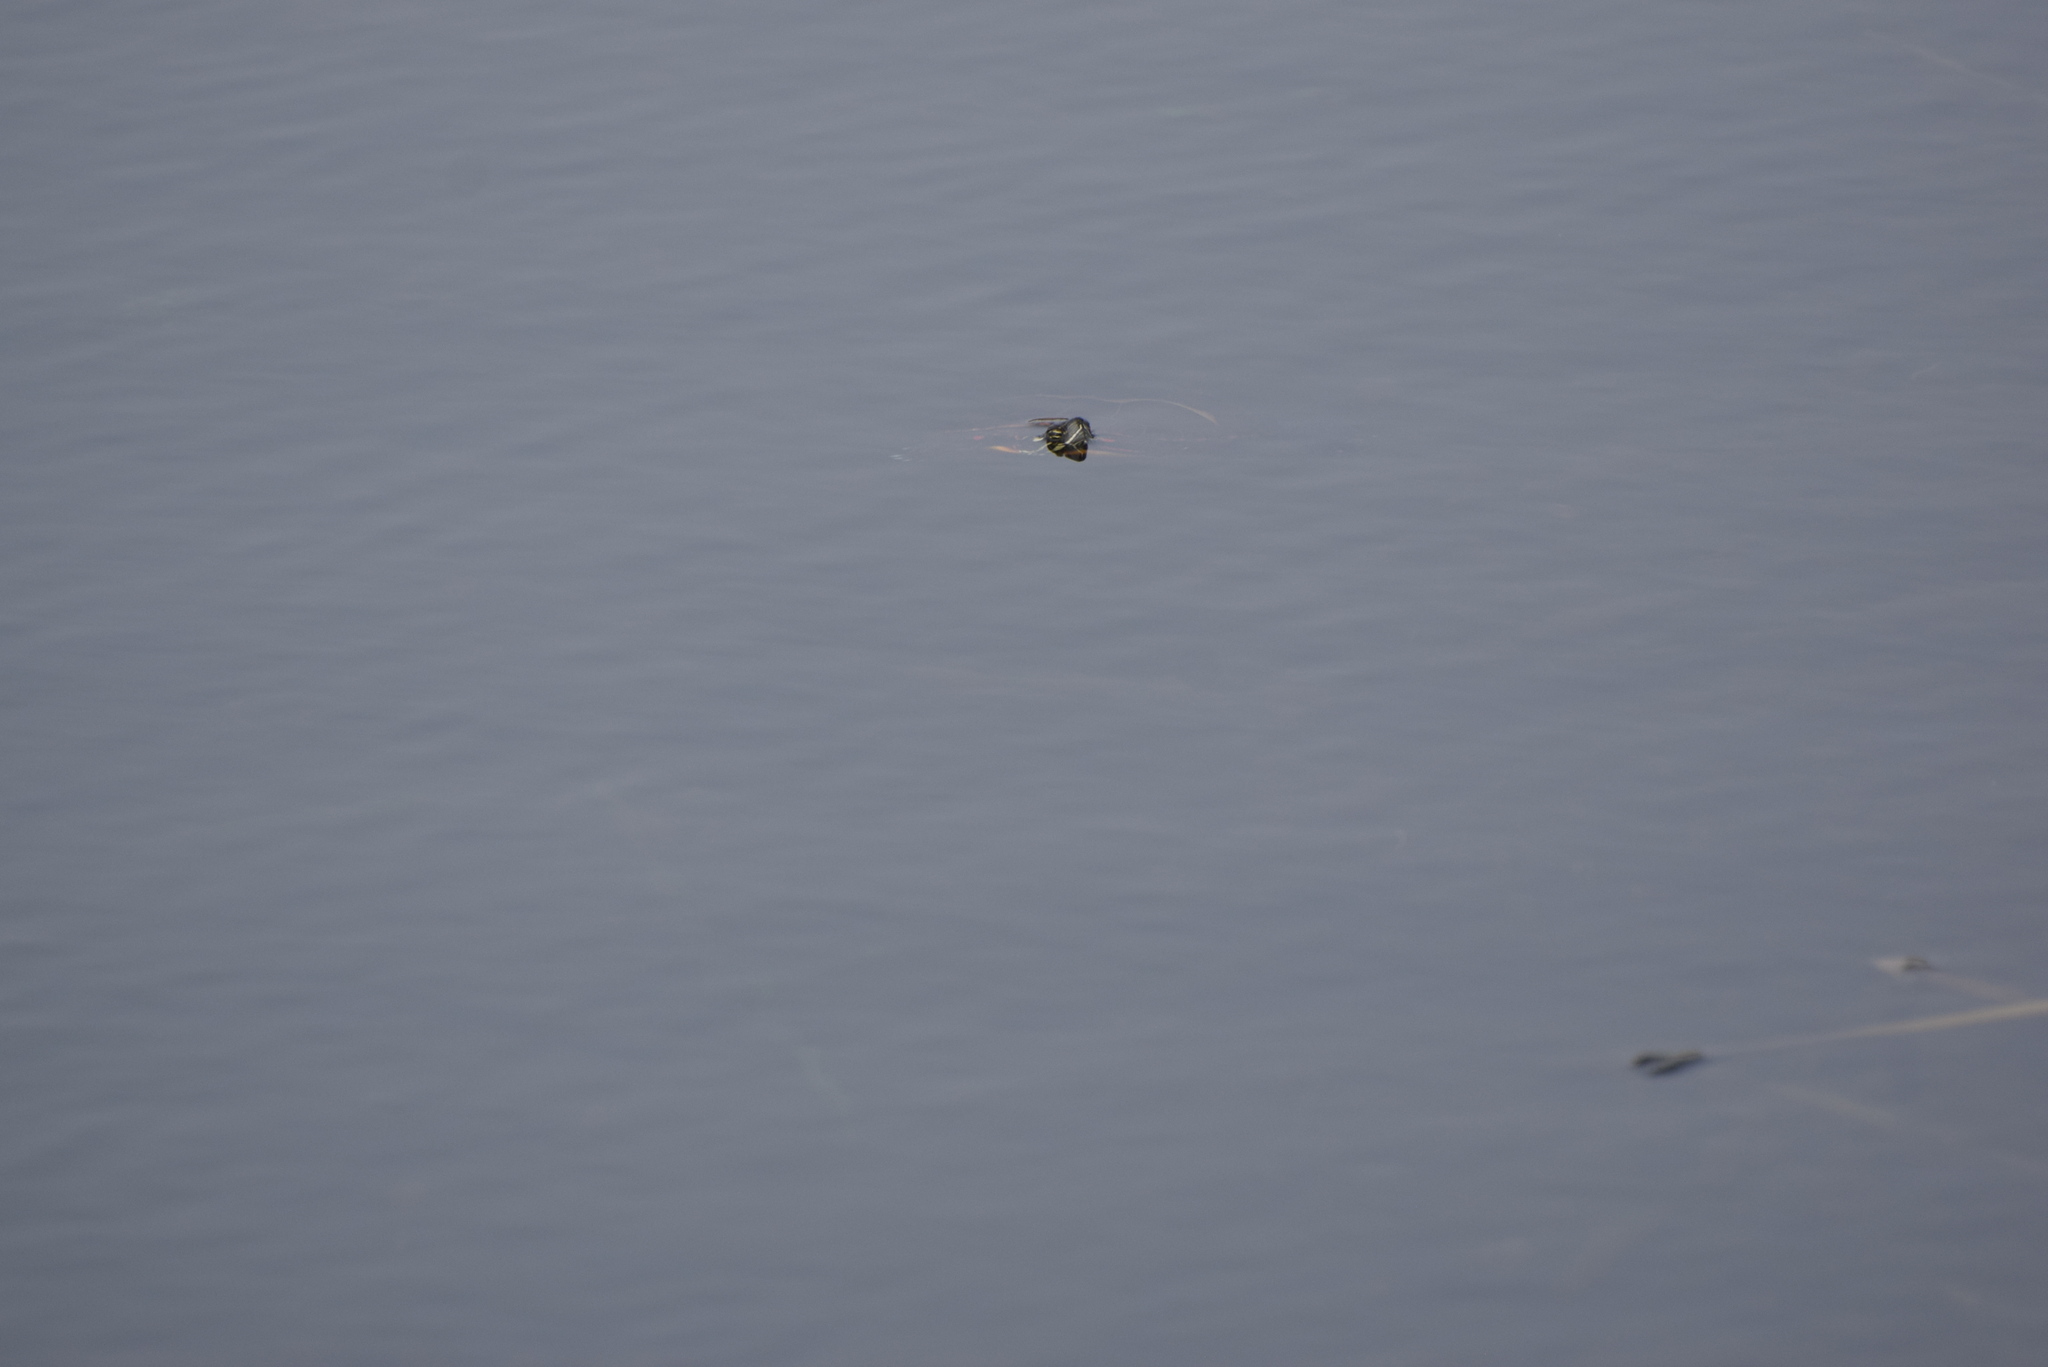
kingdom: Animalia
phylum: Chordata
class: Testudines
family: Emydidae
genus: Chrysemys
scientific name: Chrysemys picta
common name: Painted turtle
